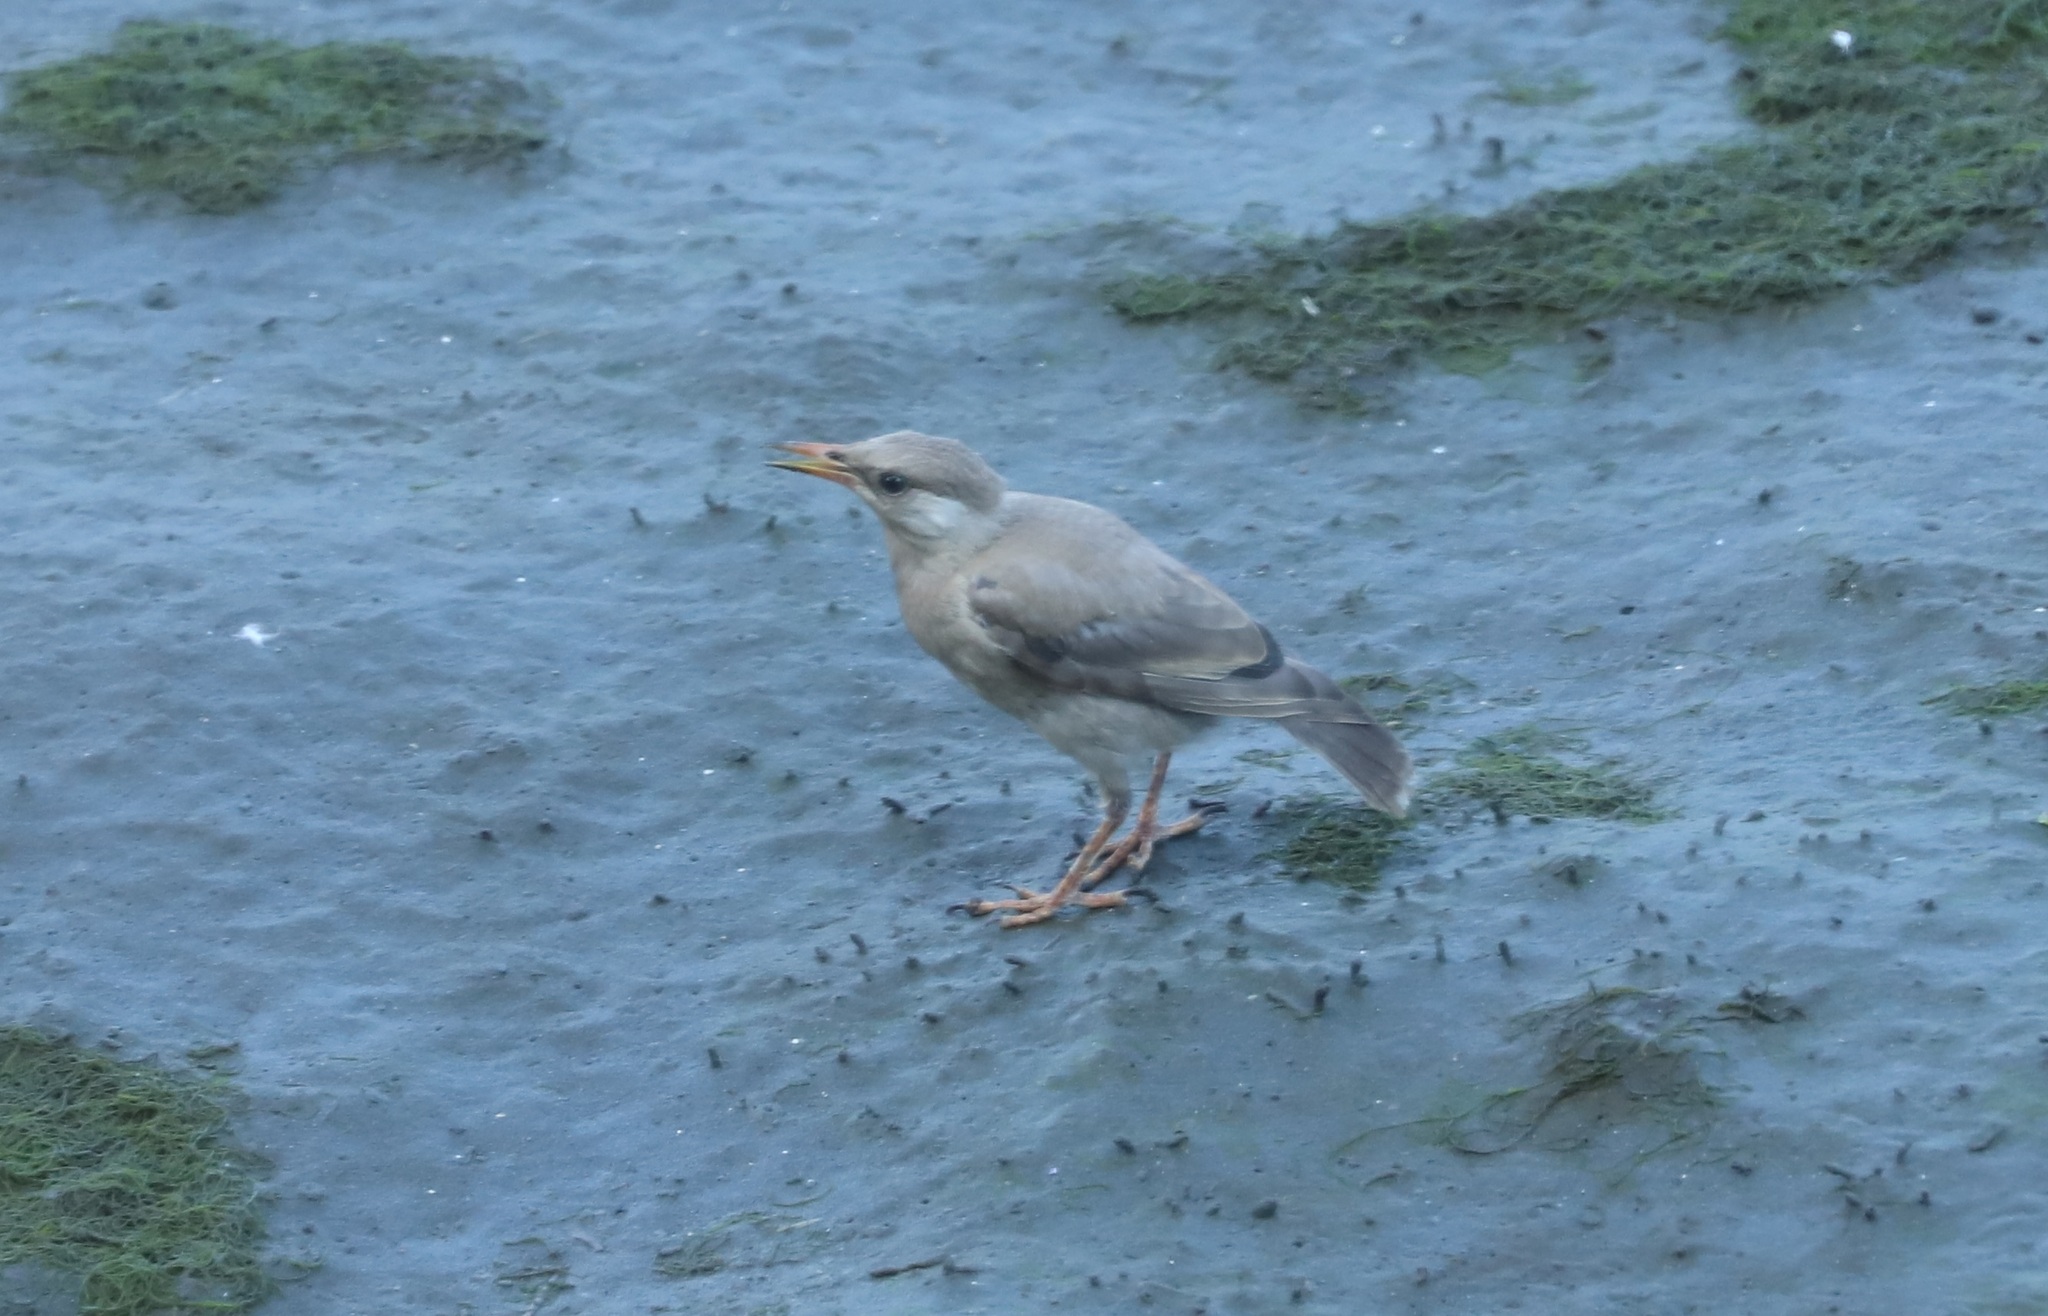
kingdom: Animalia
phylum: Chordata
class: Aves
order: Passeriformes
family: Sturnidae
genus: Spodiopsar
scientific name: Spodiopsar cineraceus
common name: White-cheeked starling
